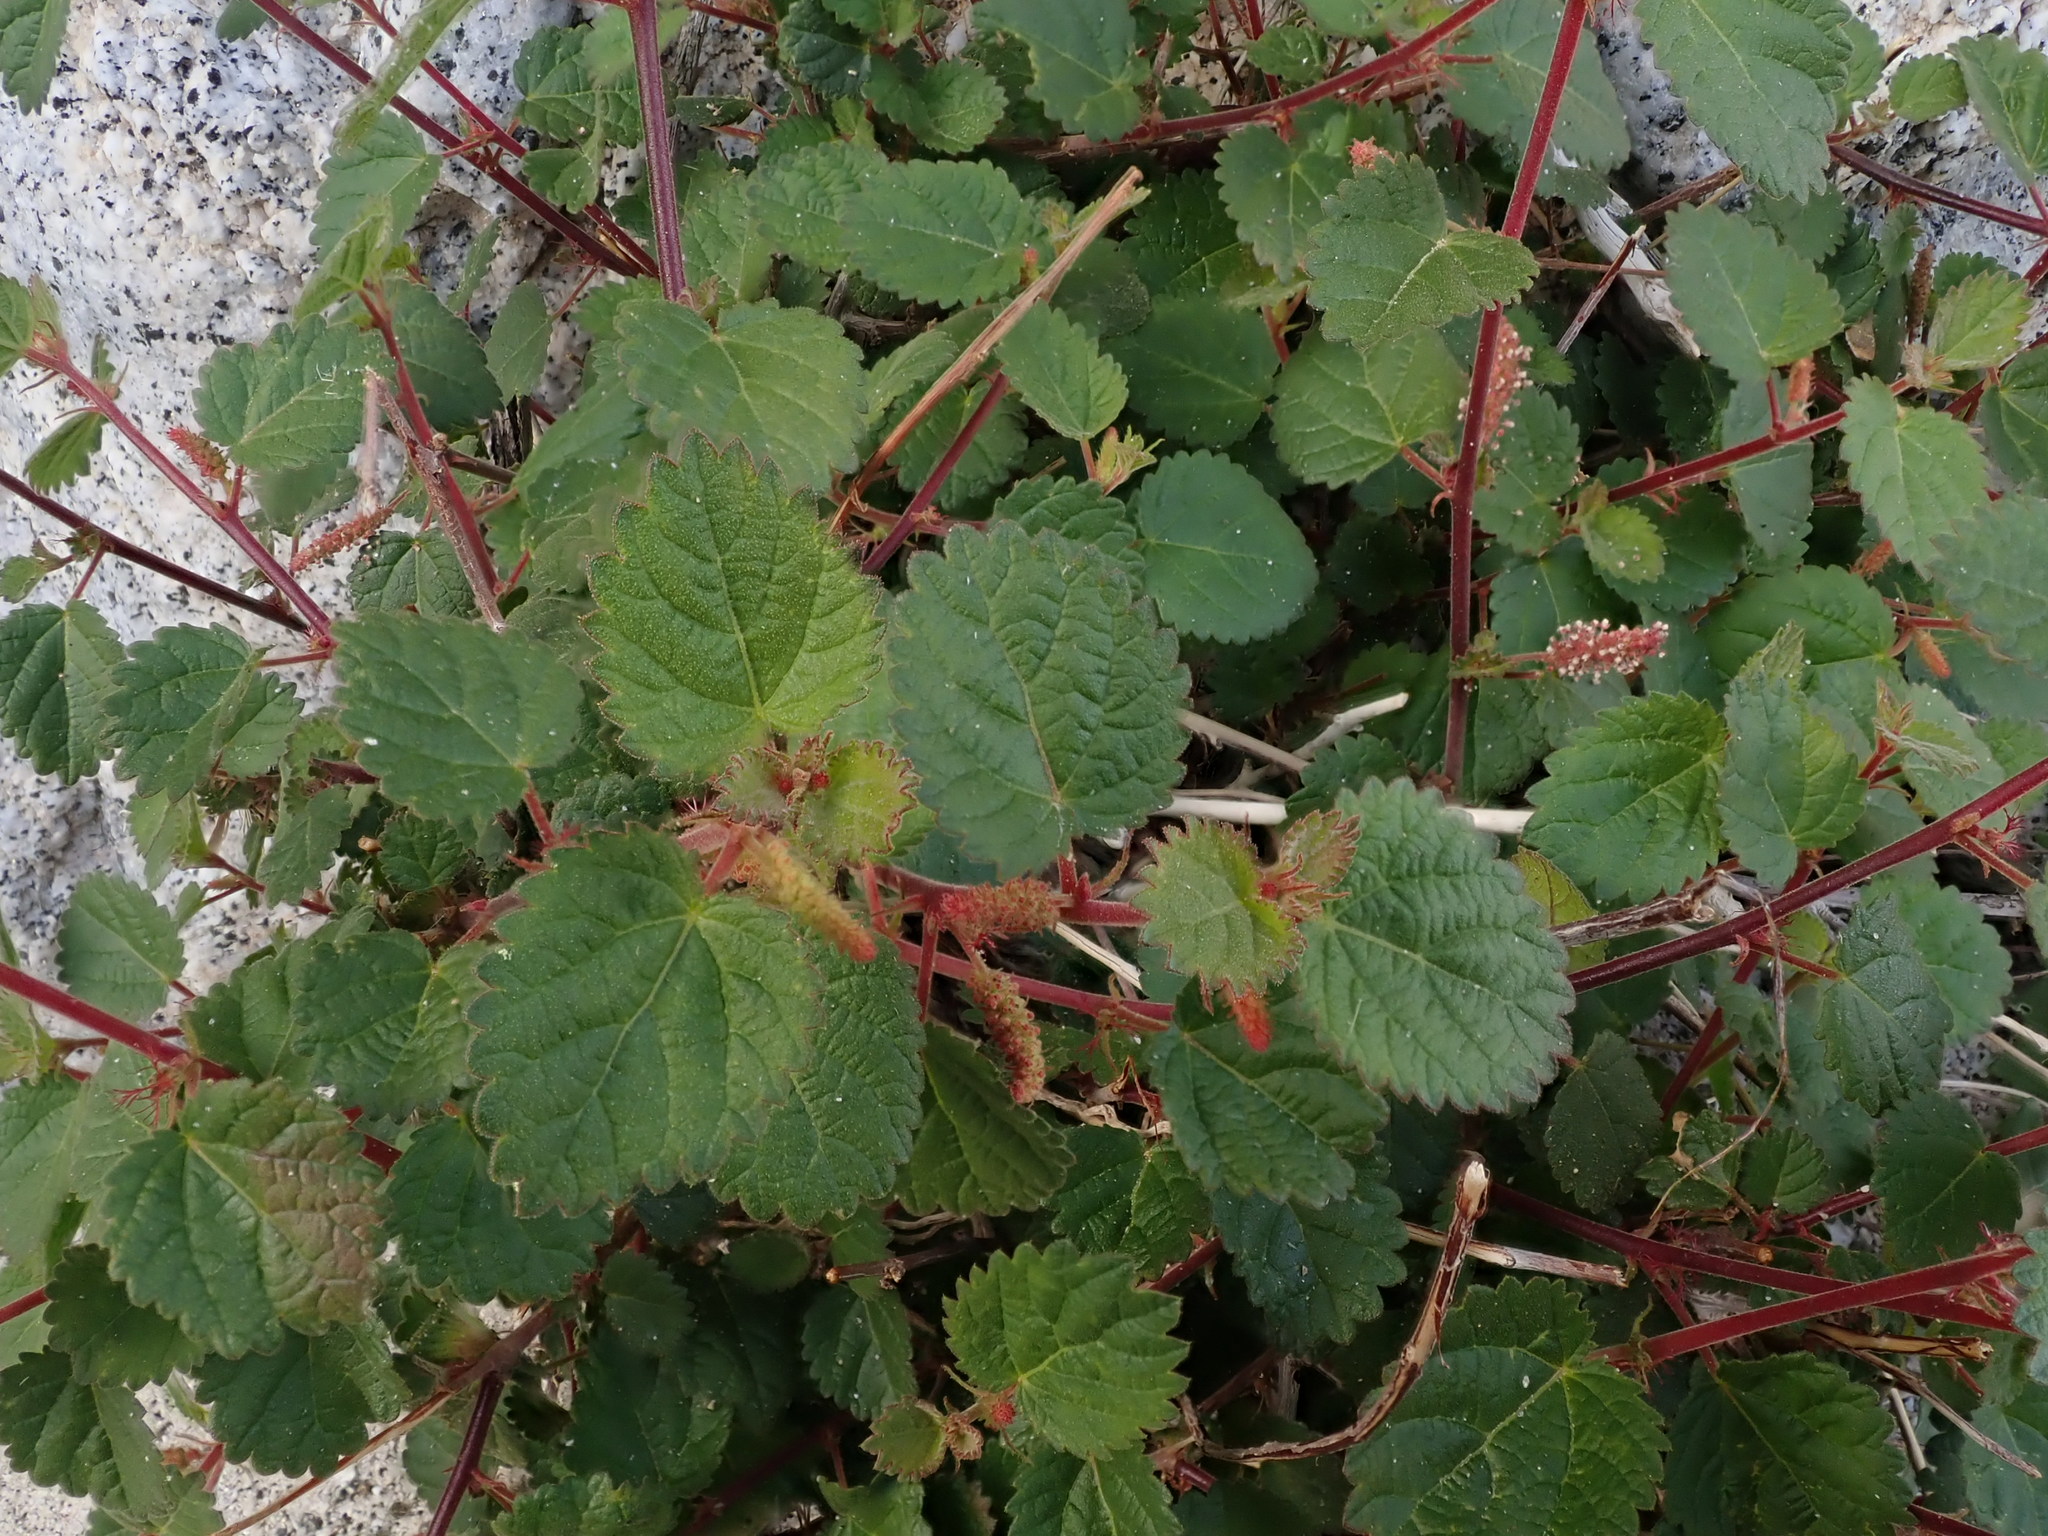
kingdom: Plantae
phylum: Tracheophyta
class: Magnoliopsida
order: Malpighiales
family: Euphorbiaceae
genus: Acalypha
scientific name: Acalypha californica
